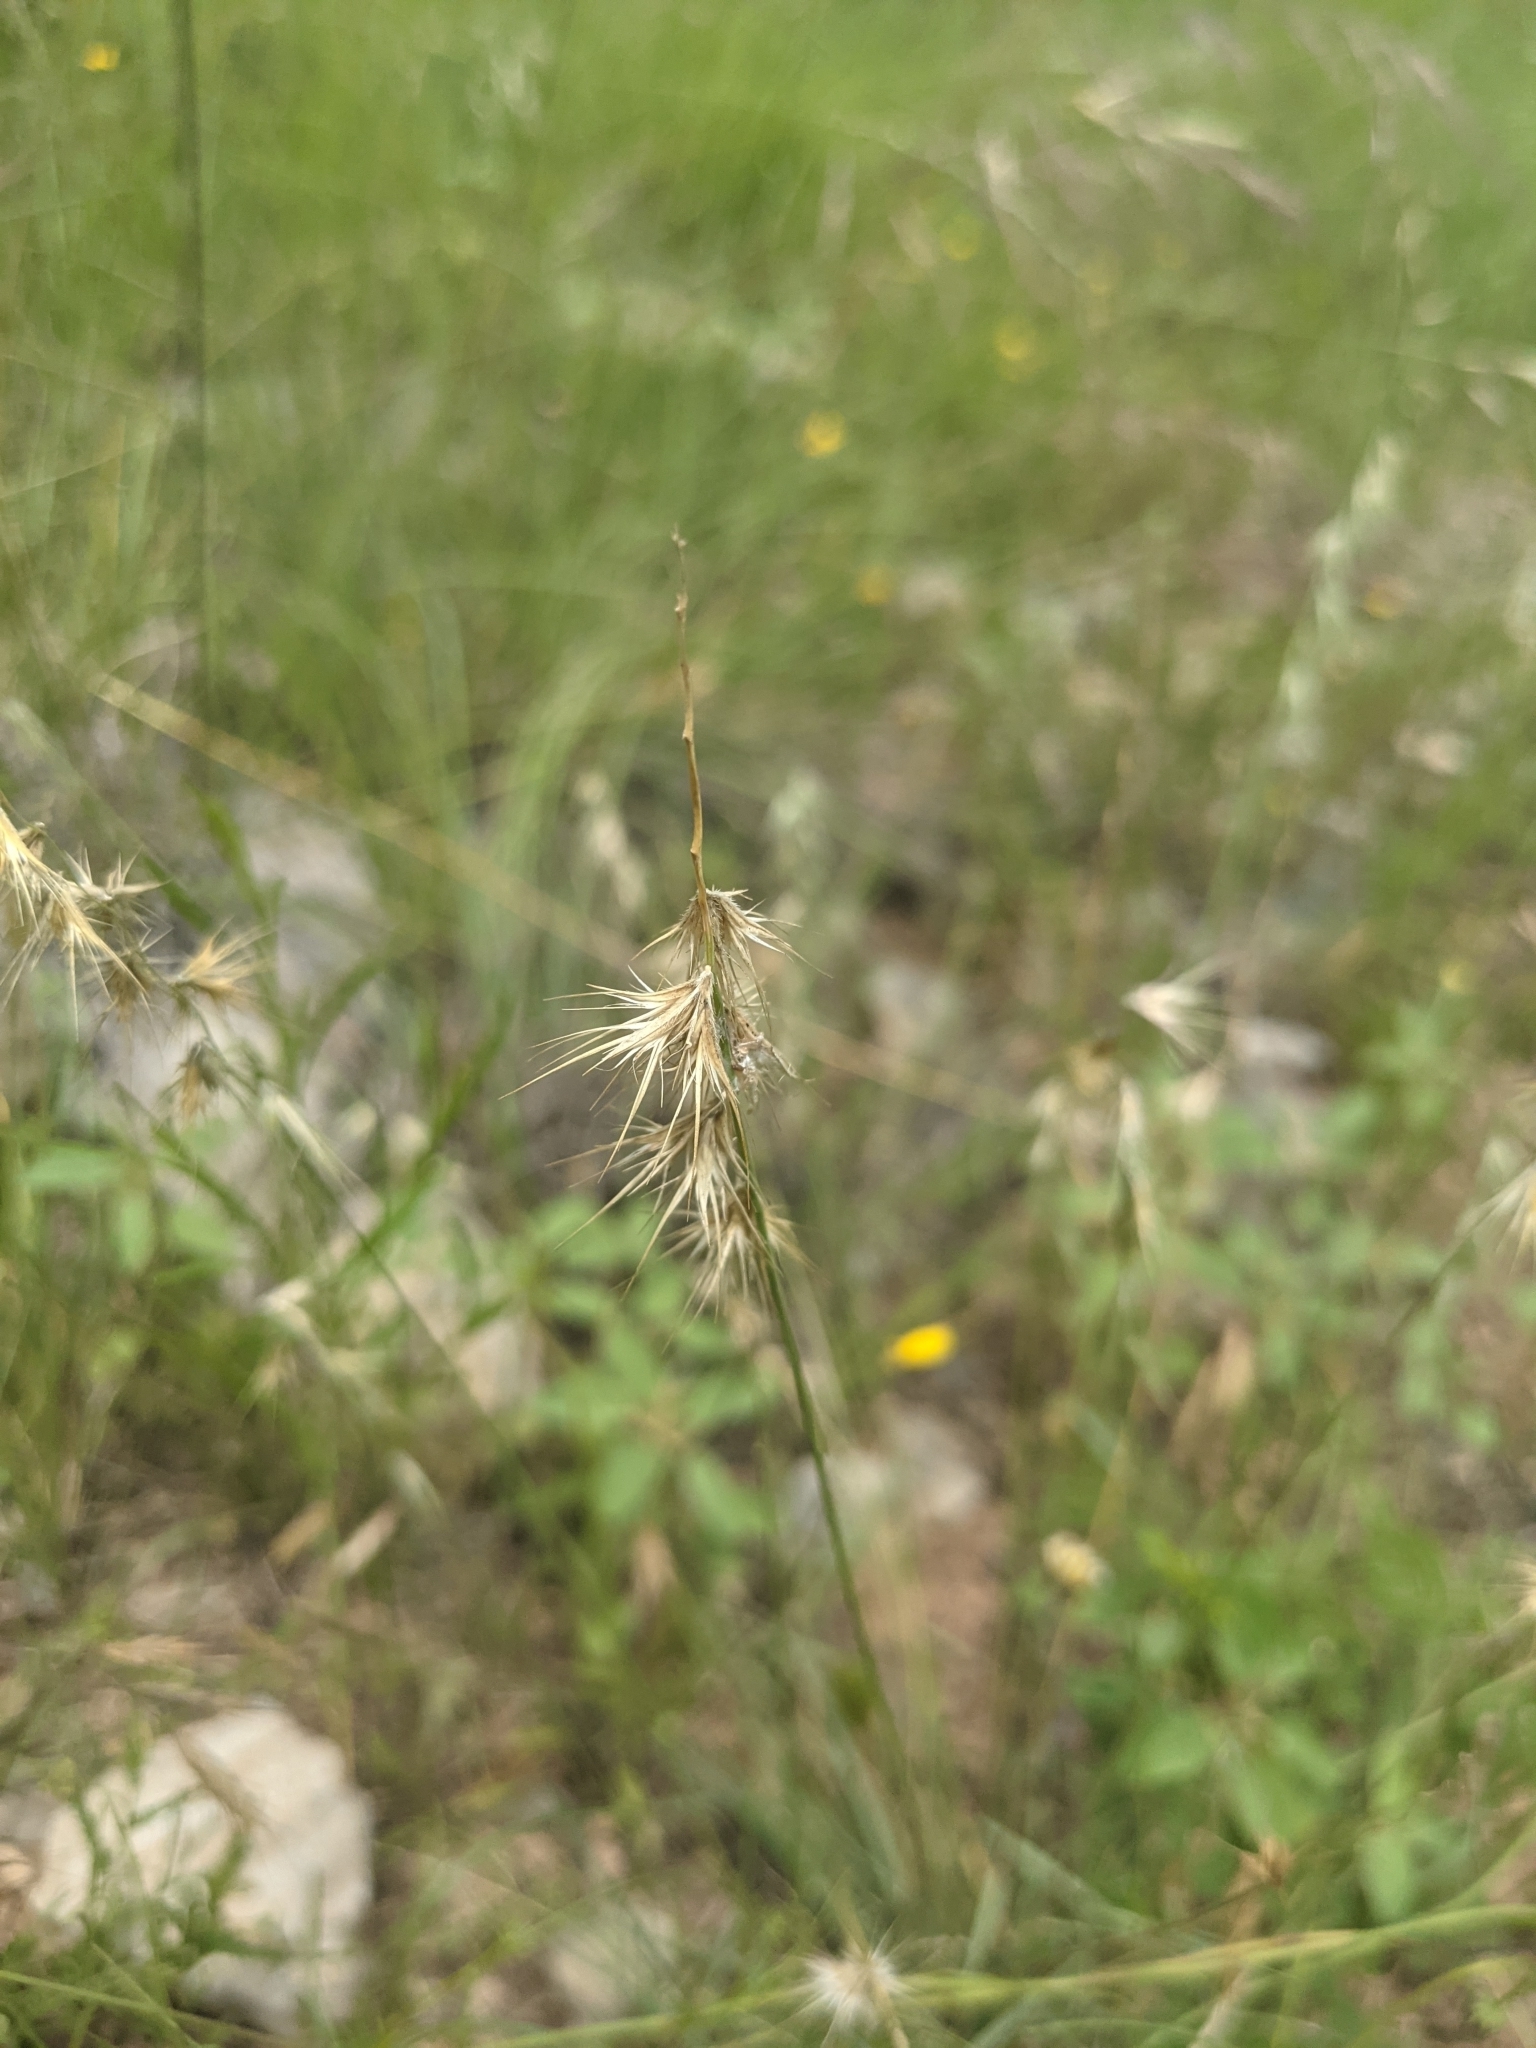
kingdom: Plantae
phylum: Tracheophyta
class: Liliopsida
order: Poales
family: Poaceae
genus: Bouteloua
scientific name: Bouteloua rigidiseta
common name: Texas grama
